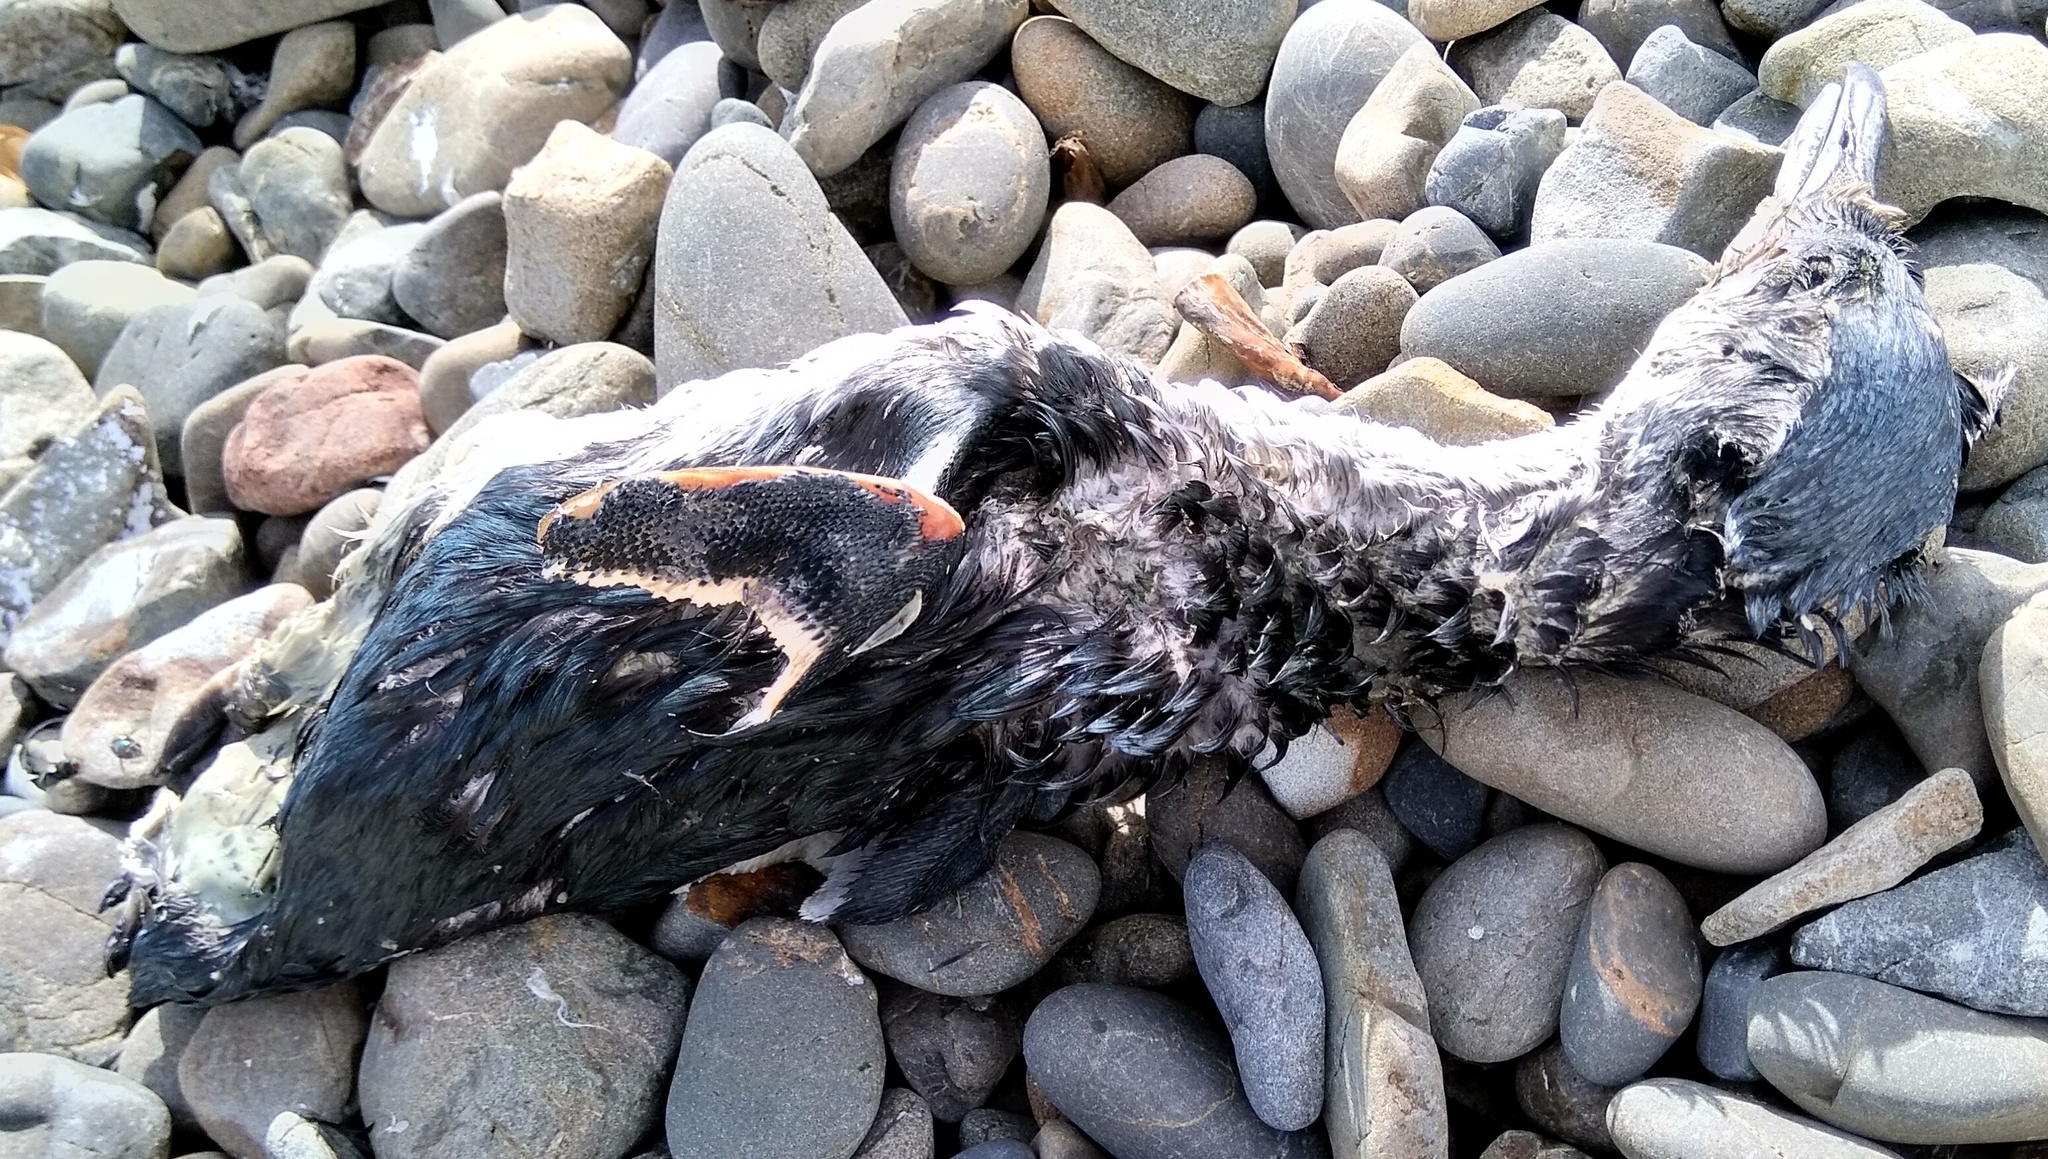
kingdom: Animalia
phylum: Chordata
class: Aves
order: Sphenisciformes
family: Spheniscidae
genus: Eudyptula
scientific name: Eudyptula minor
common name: Little penguin
